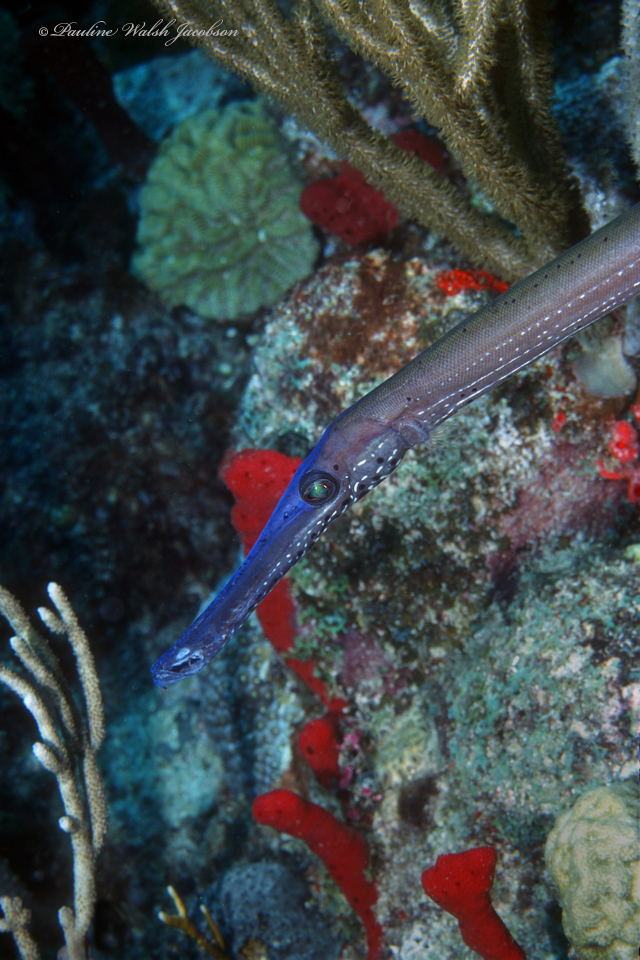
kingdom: Animalia
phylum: Chordata
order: Syngnathiformes
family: Aulostomidae
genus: Aulostomus
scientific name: Aulostomus maculatus
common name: West atlantic trumpetfish
